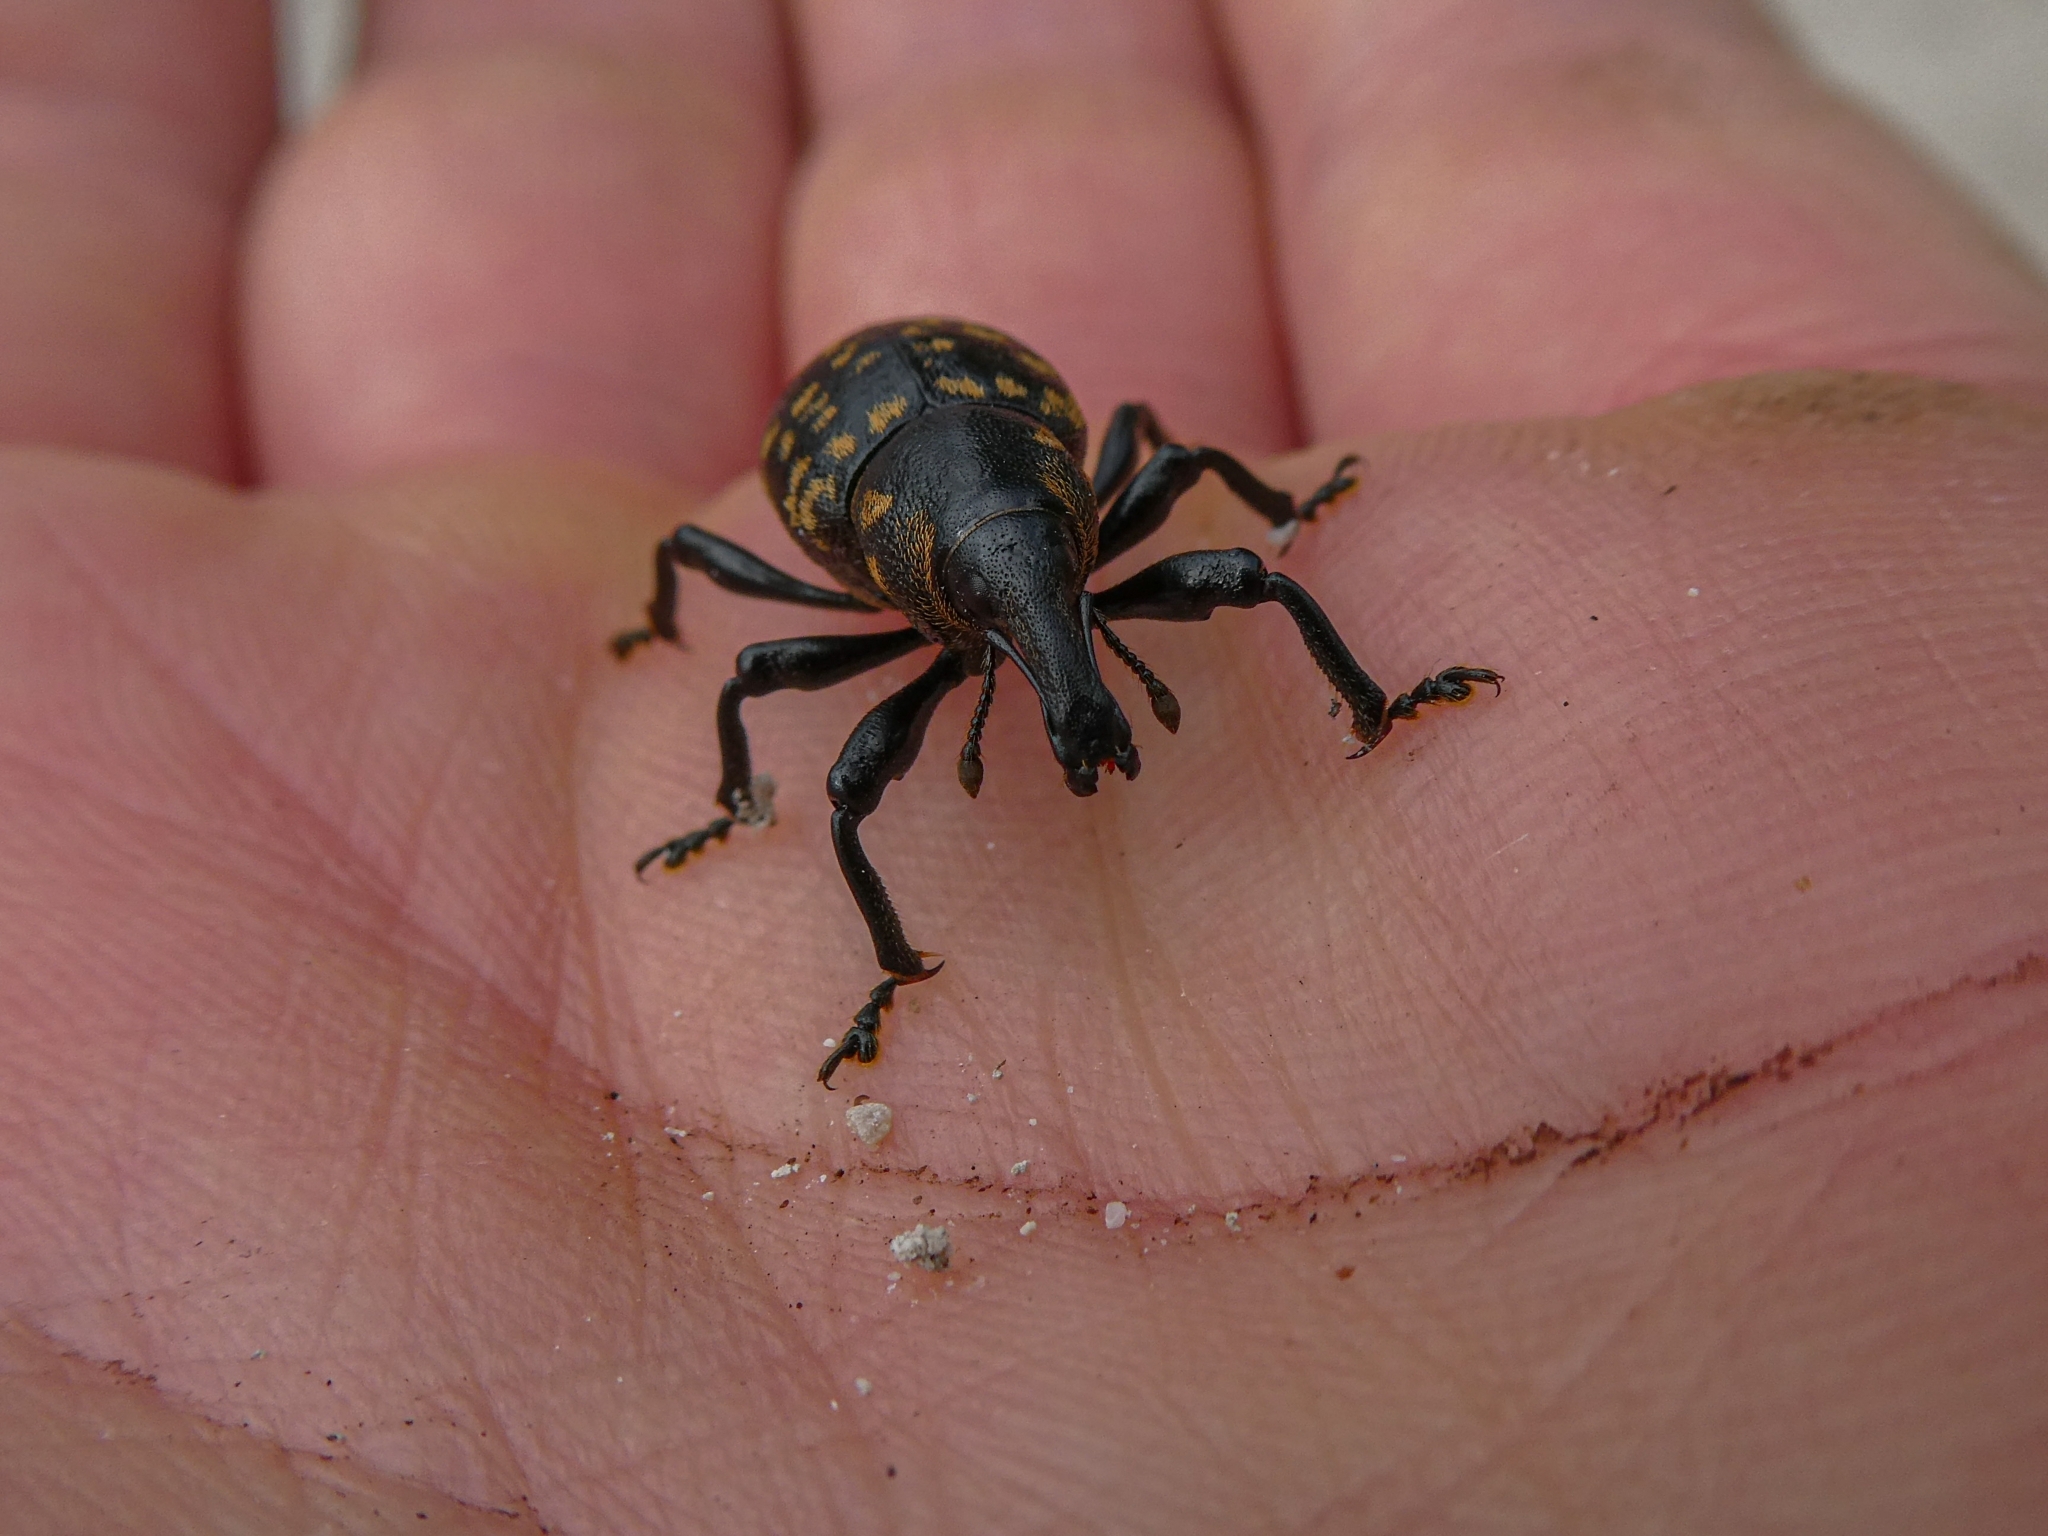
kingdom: Animalia
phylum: Arthropoda
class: Insecta
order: Coleoptera
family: Curculionidae
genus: Liparus
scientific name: Liparus germanus
